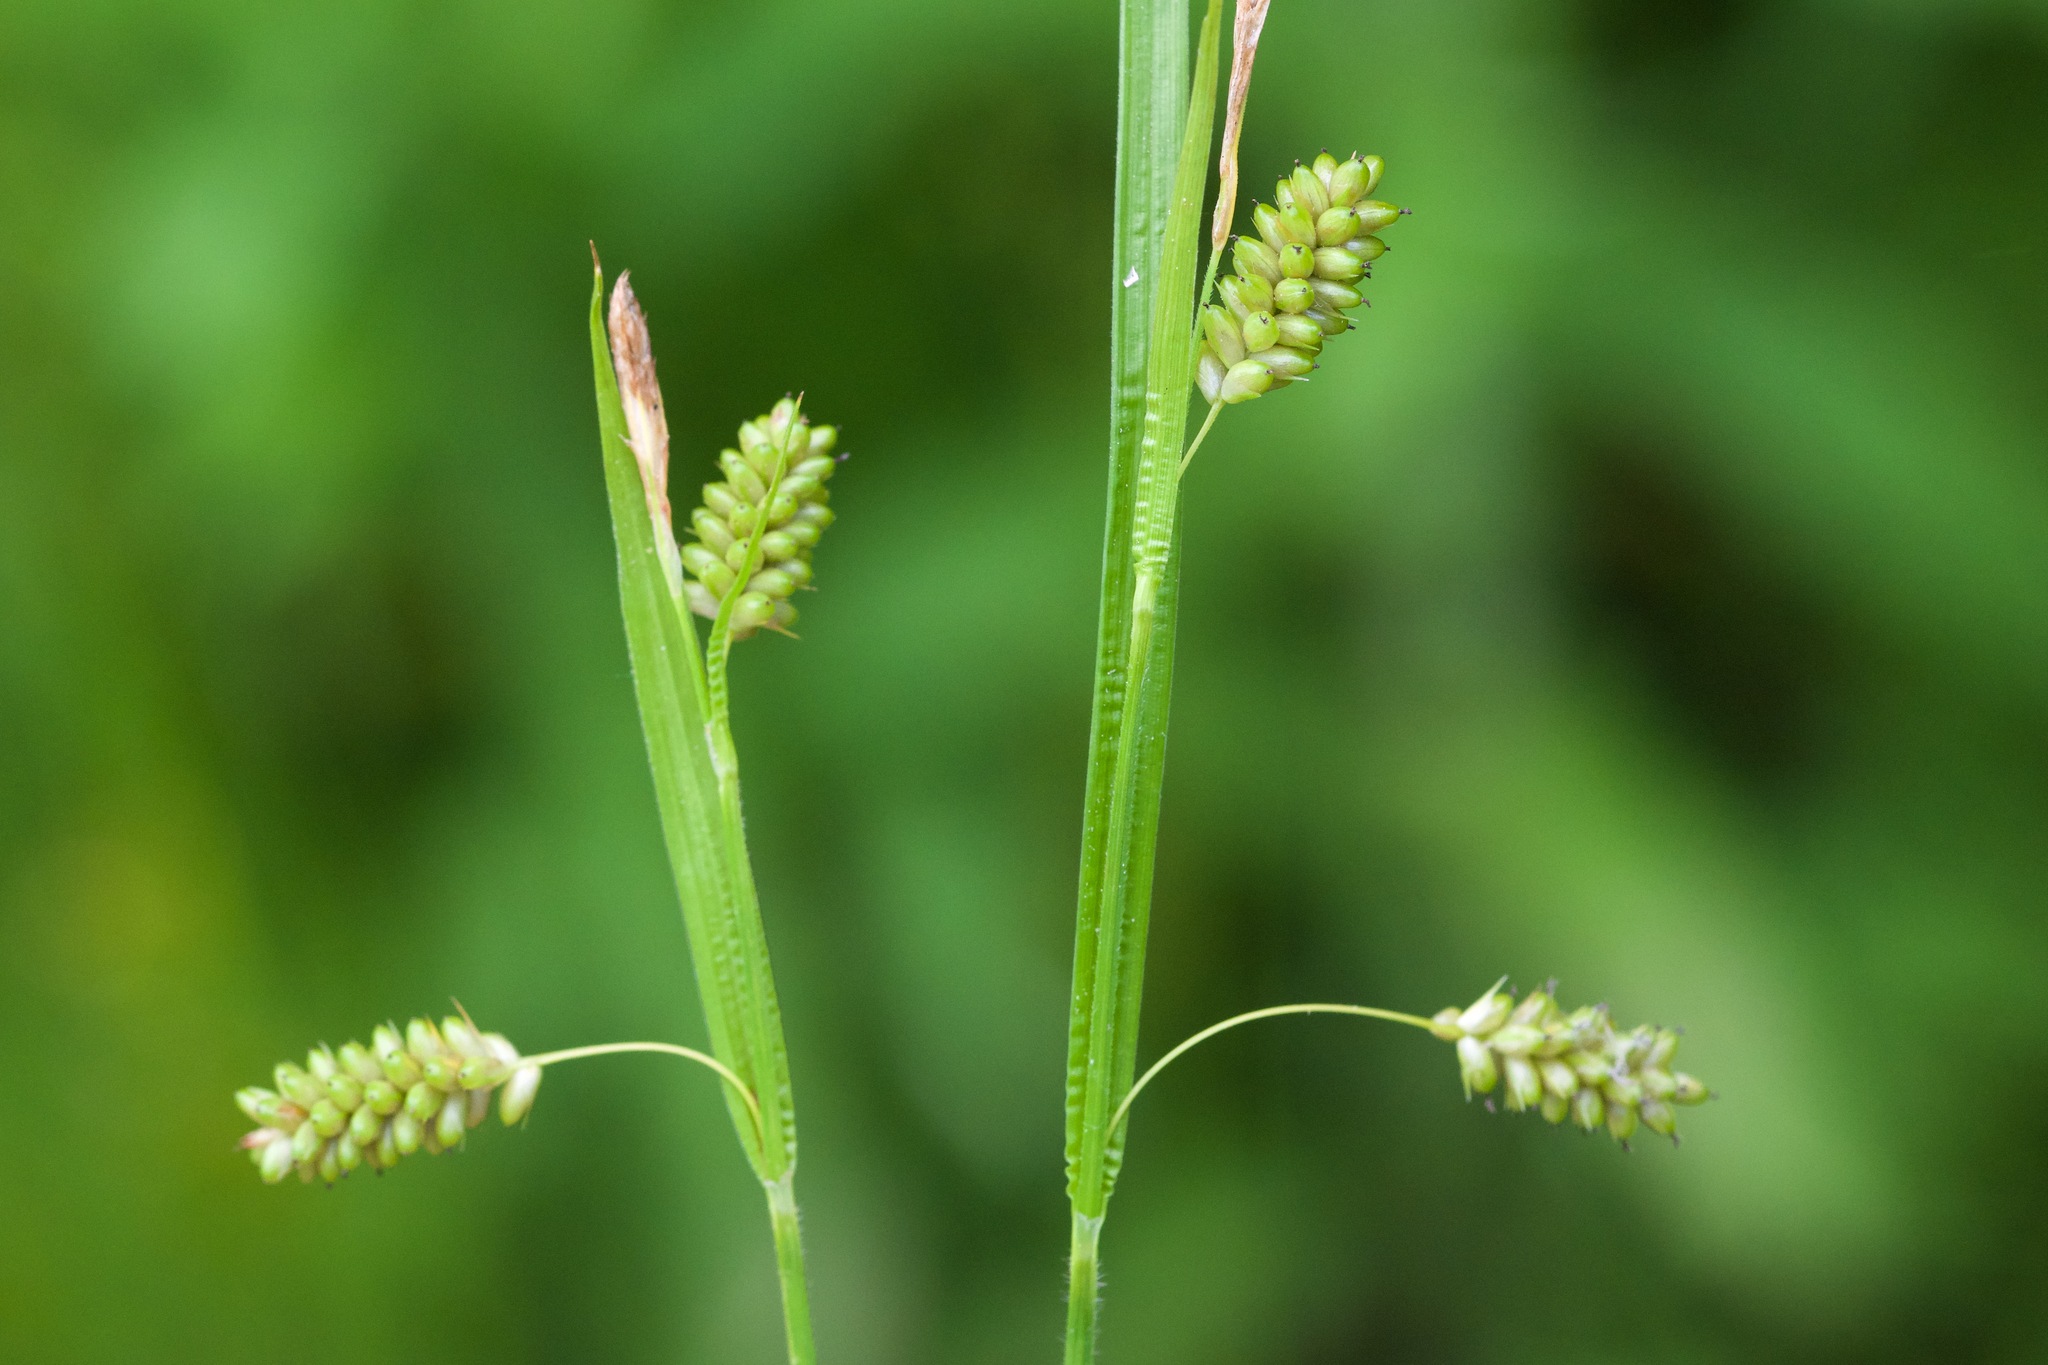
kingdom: Plantae
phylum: Tracheophyta
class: Liliopsida
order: Poales
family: Cyperaceae
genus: Carex
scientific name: Carex pallescens
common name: Pale sedge
